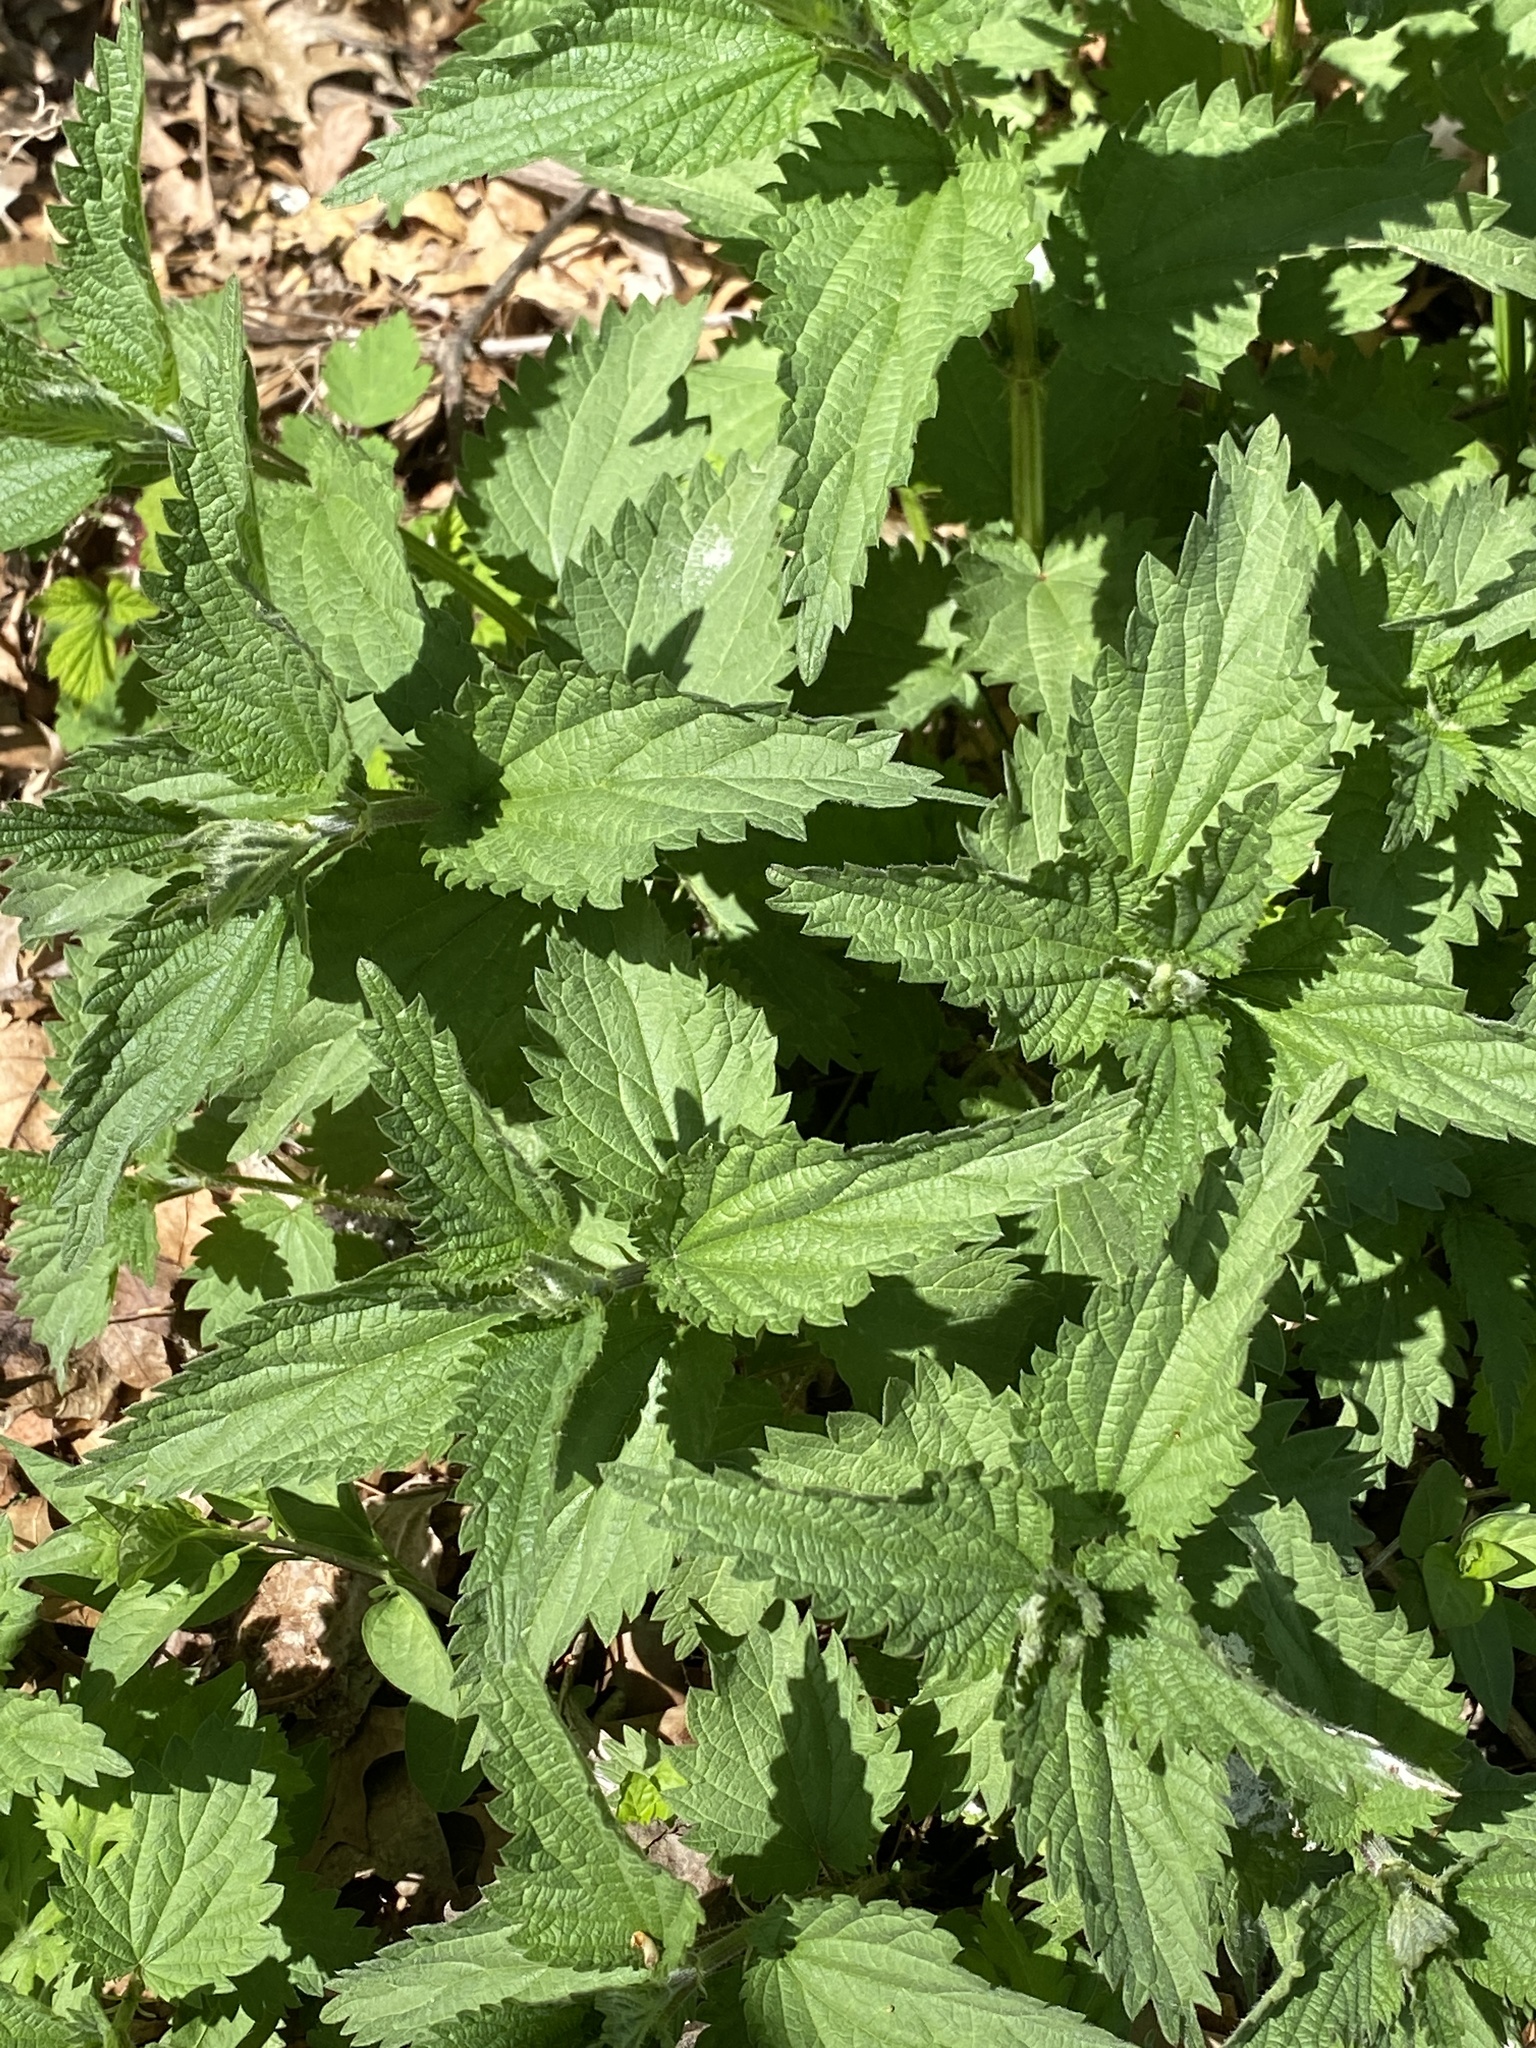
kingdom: Plantae
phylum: Tracheophyta
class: Magnoliopsida
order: Rosales
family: Urticaceae
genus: Urtica
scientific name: Urtica dioica
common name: Common nettle
